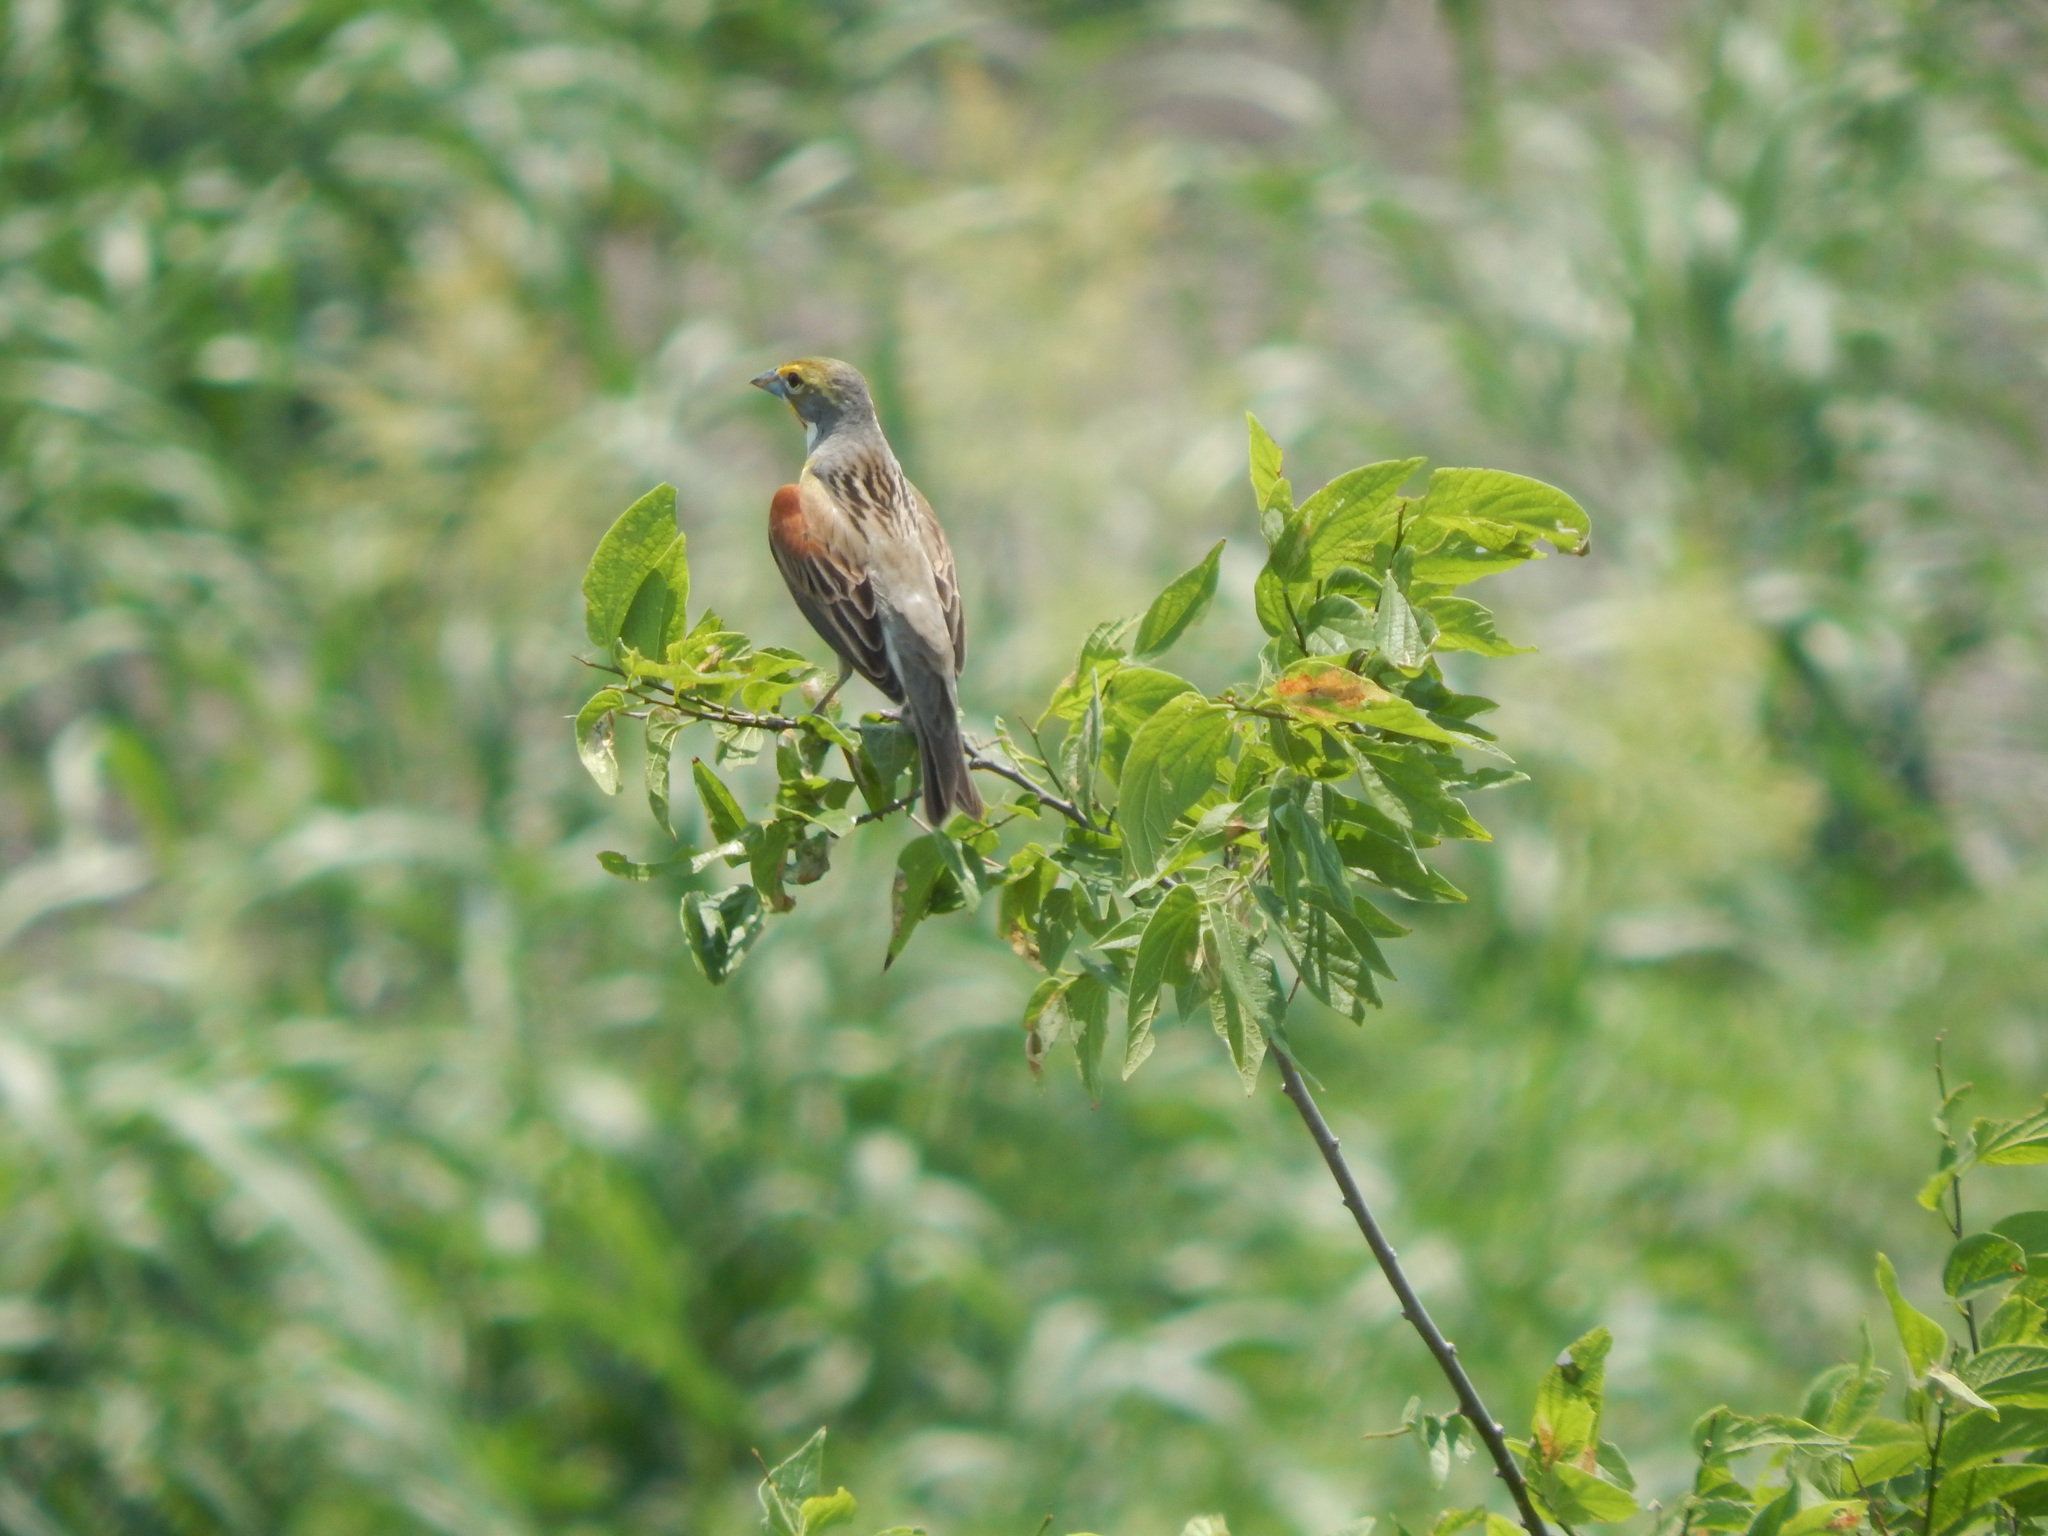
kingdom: Animalia
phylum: Chordata
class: Aves
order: Passeriformes
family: Cardinalidae
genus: Spiza
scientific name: Spiza americana
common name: Dickcissel
